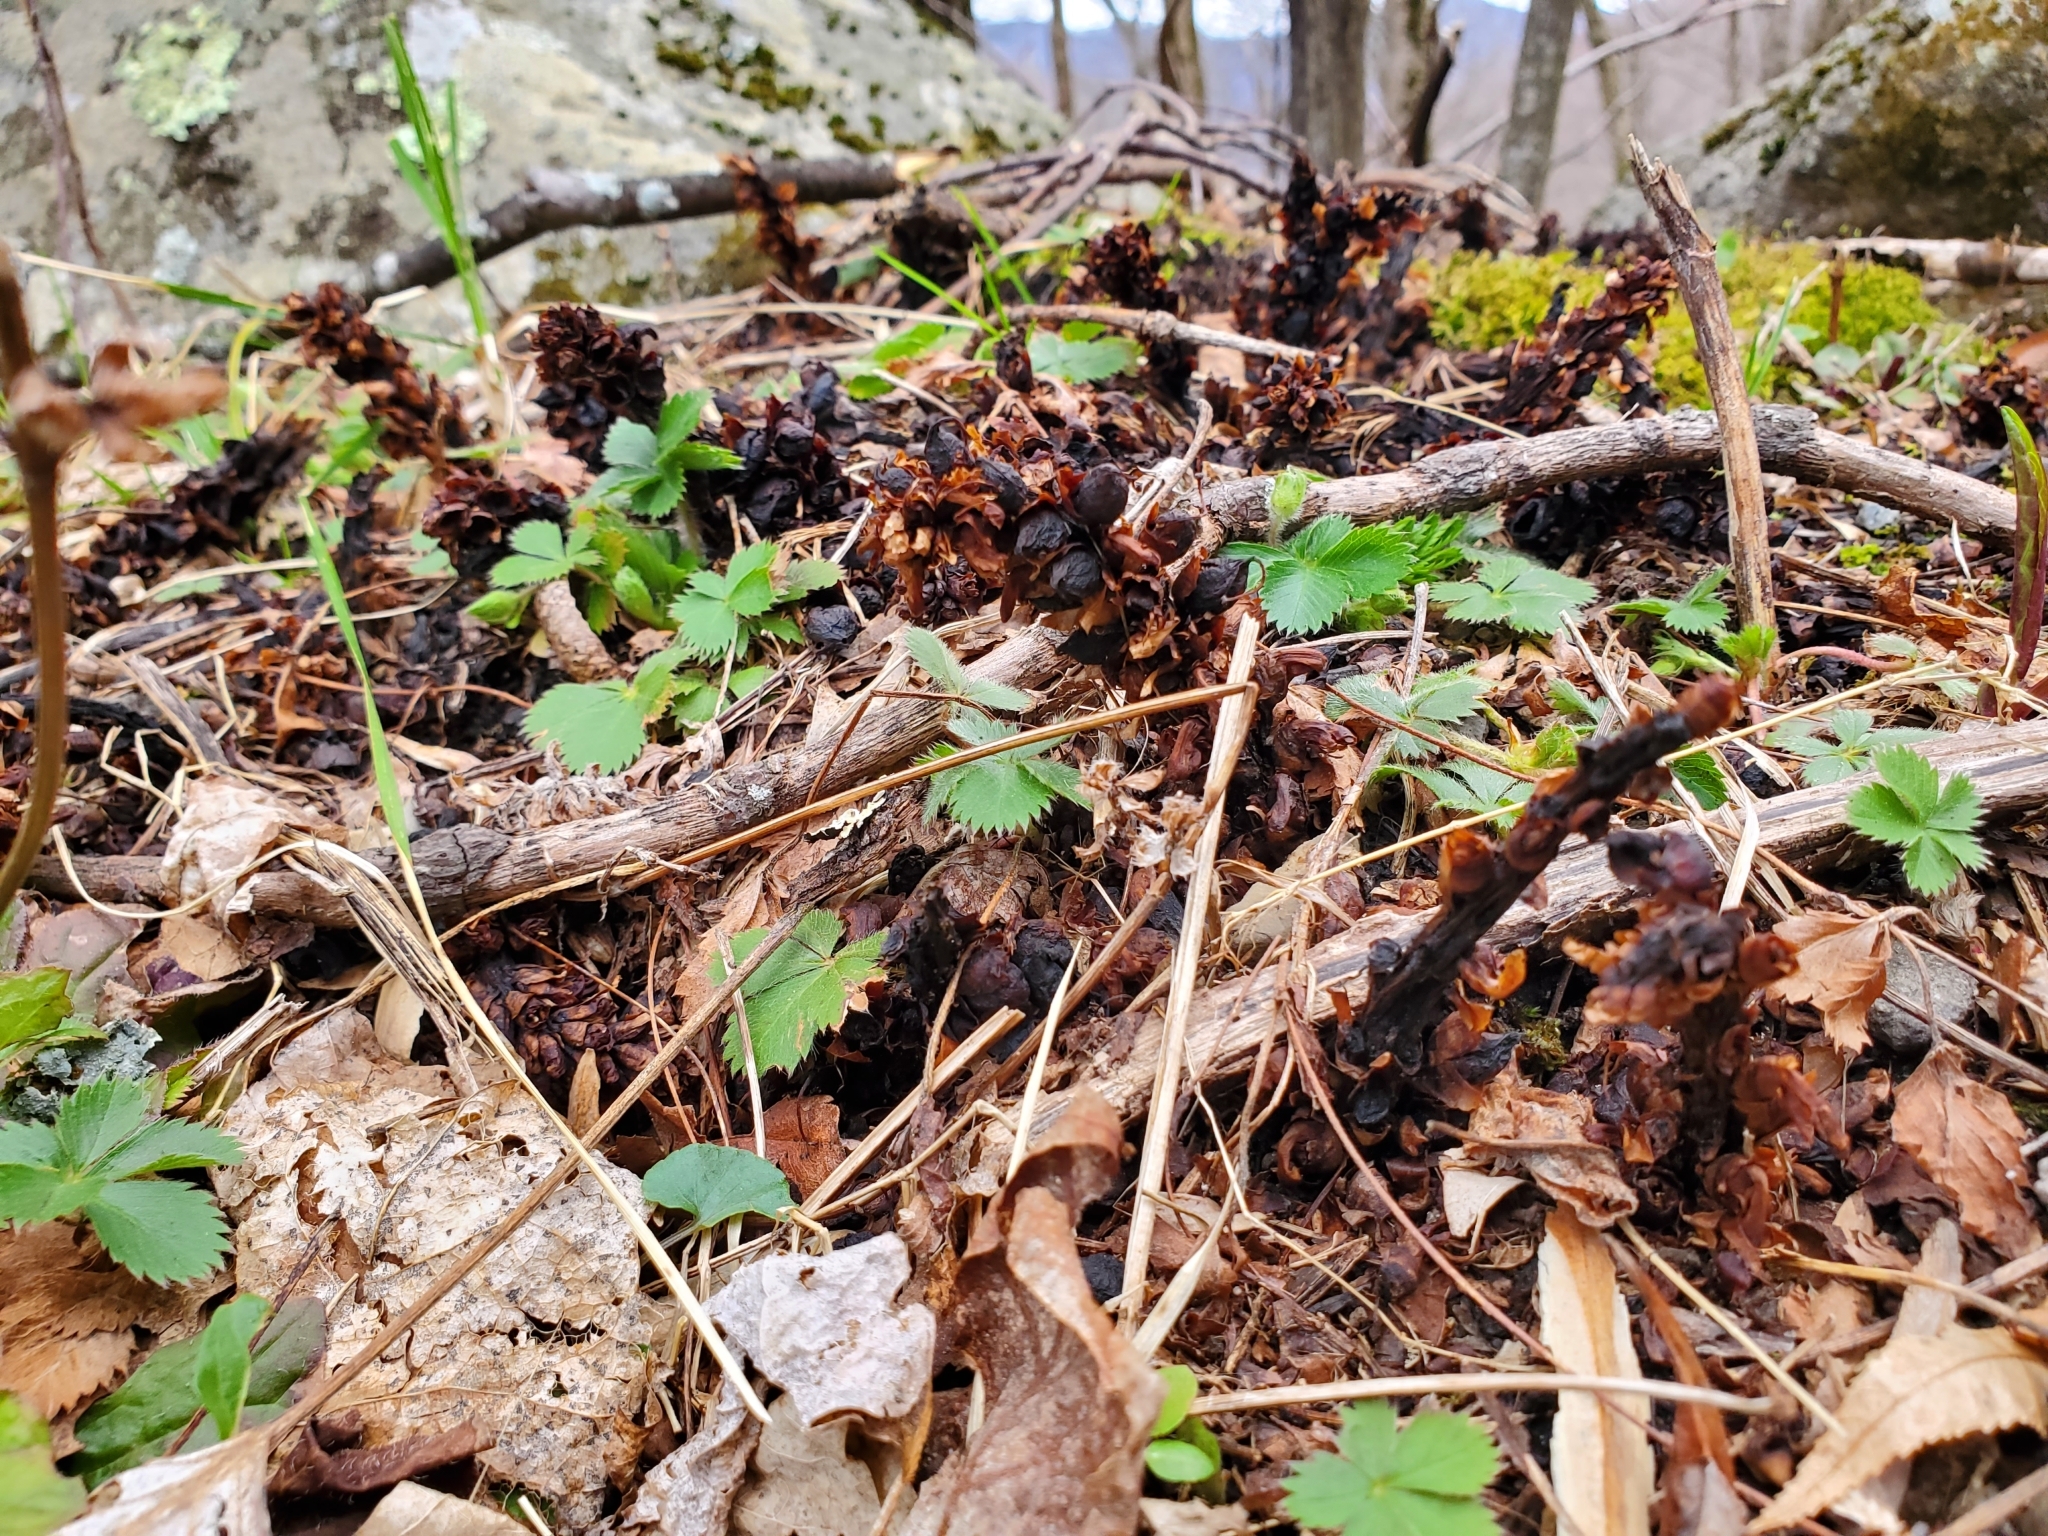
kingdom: Plantae
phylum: Tracheophyta
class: Magnoliopsida
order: Lamiales
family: Orobanchaceae
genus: Conopholis
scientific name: Conopholis americana
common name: American cancer-root
